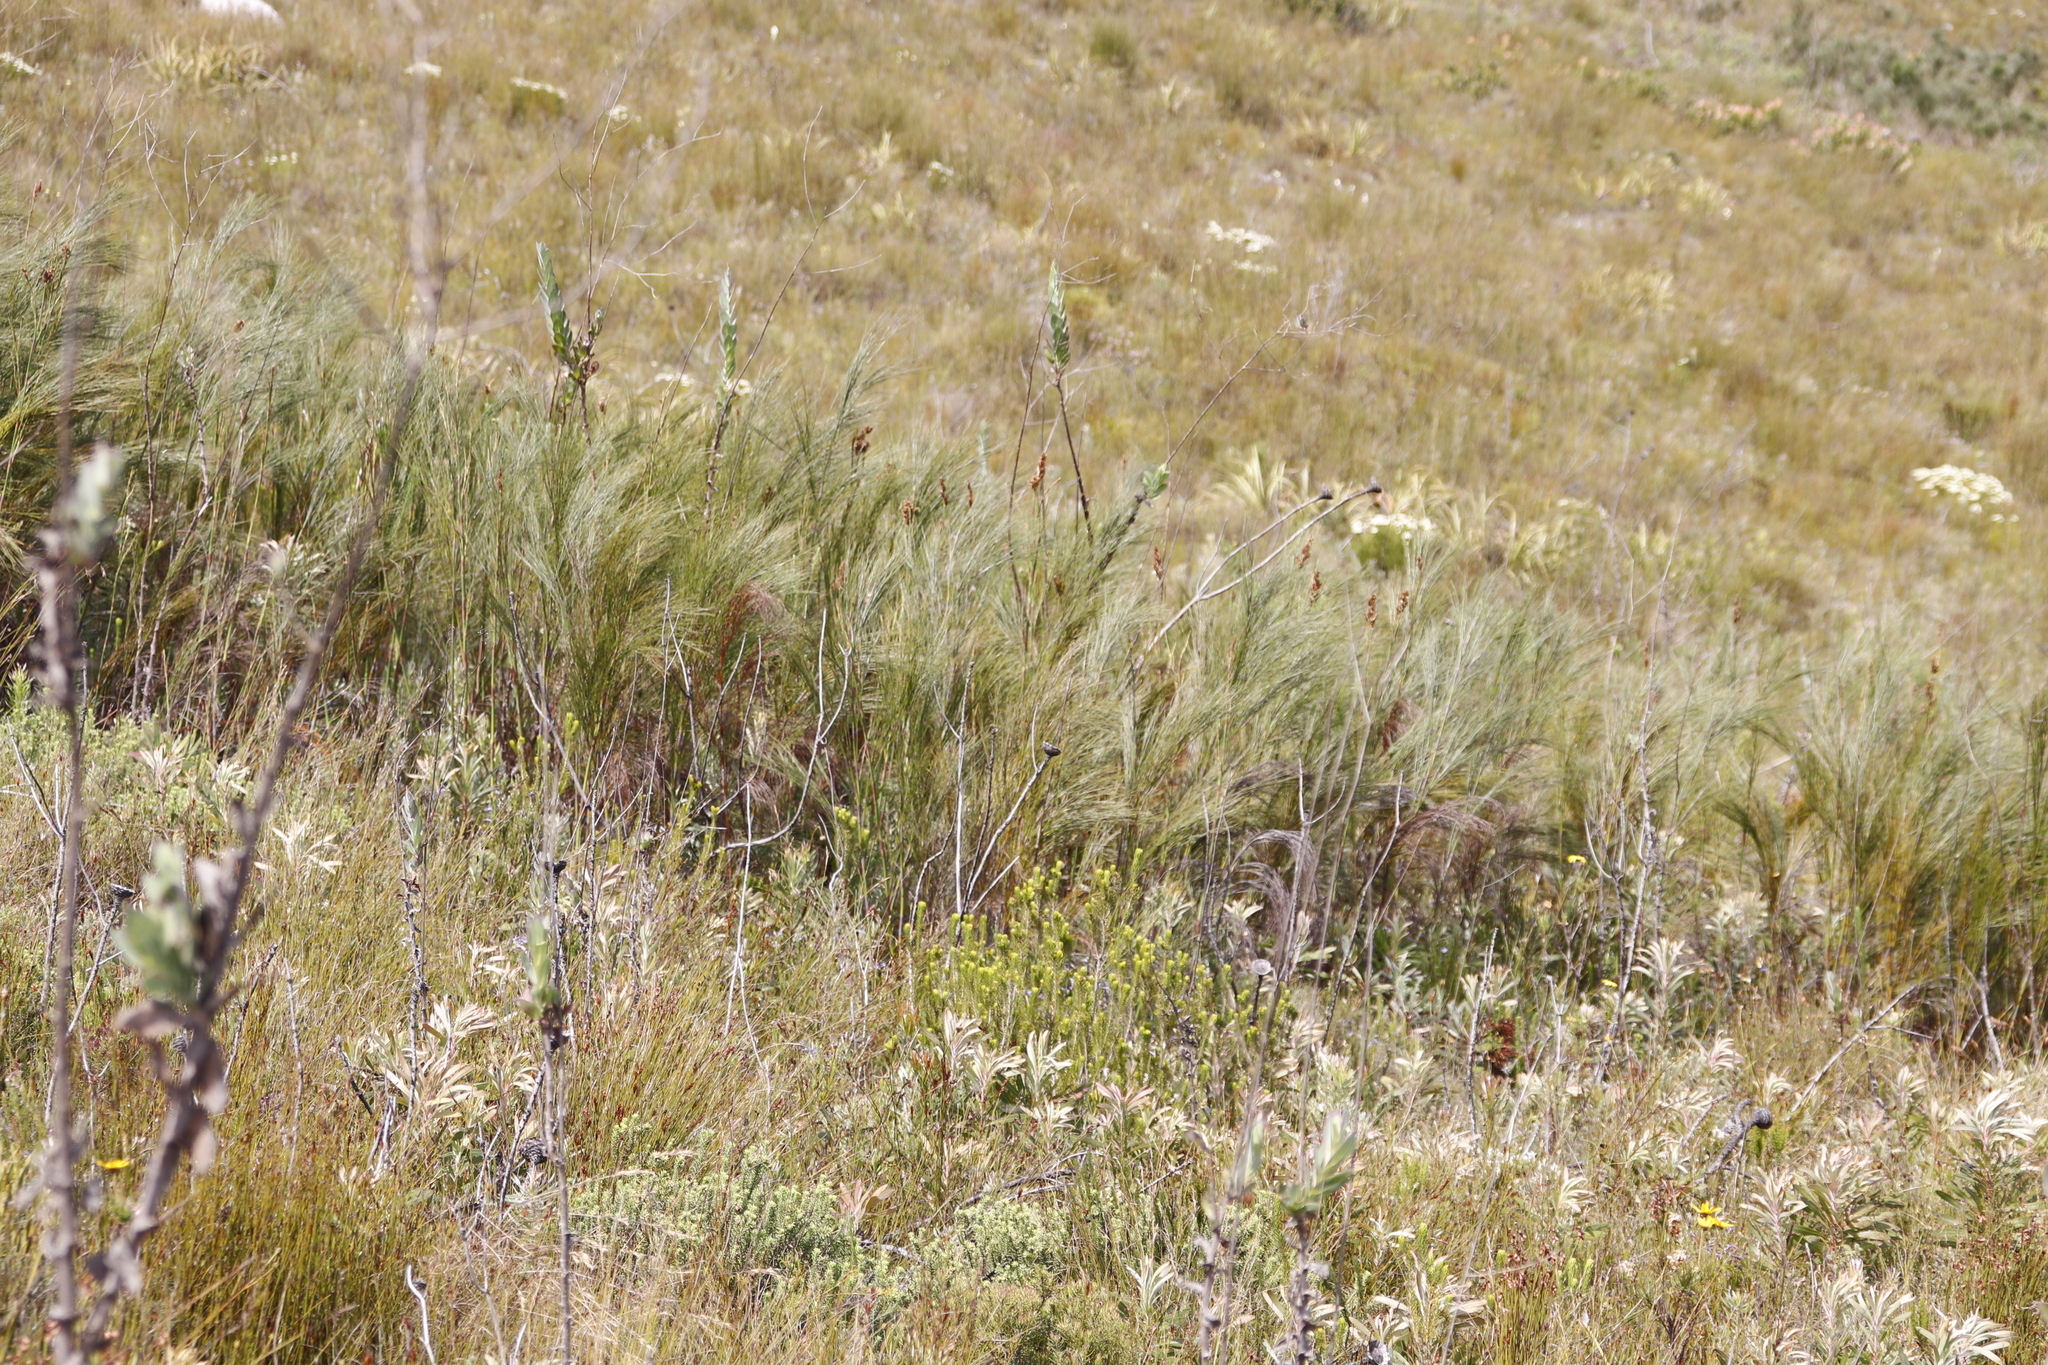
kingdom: Plantae
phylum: Tracheophyta
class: Liliopsida
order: Poales
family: Restionaceae
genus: Cannomois
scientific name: Cannomois virgata
